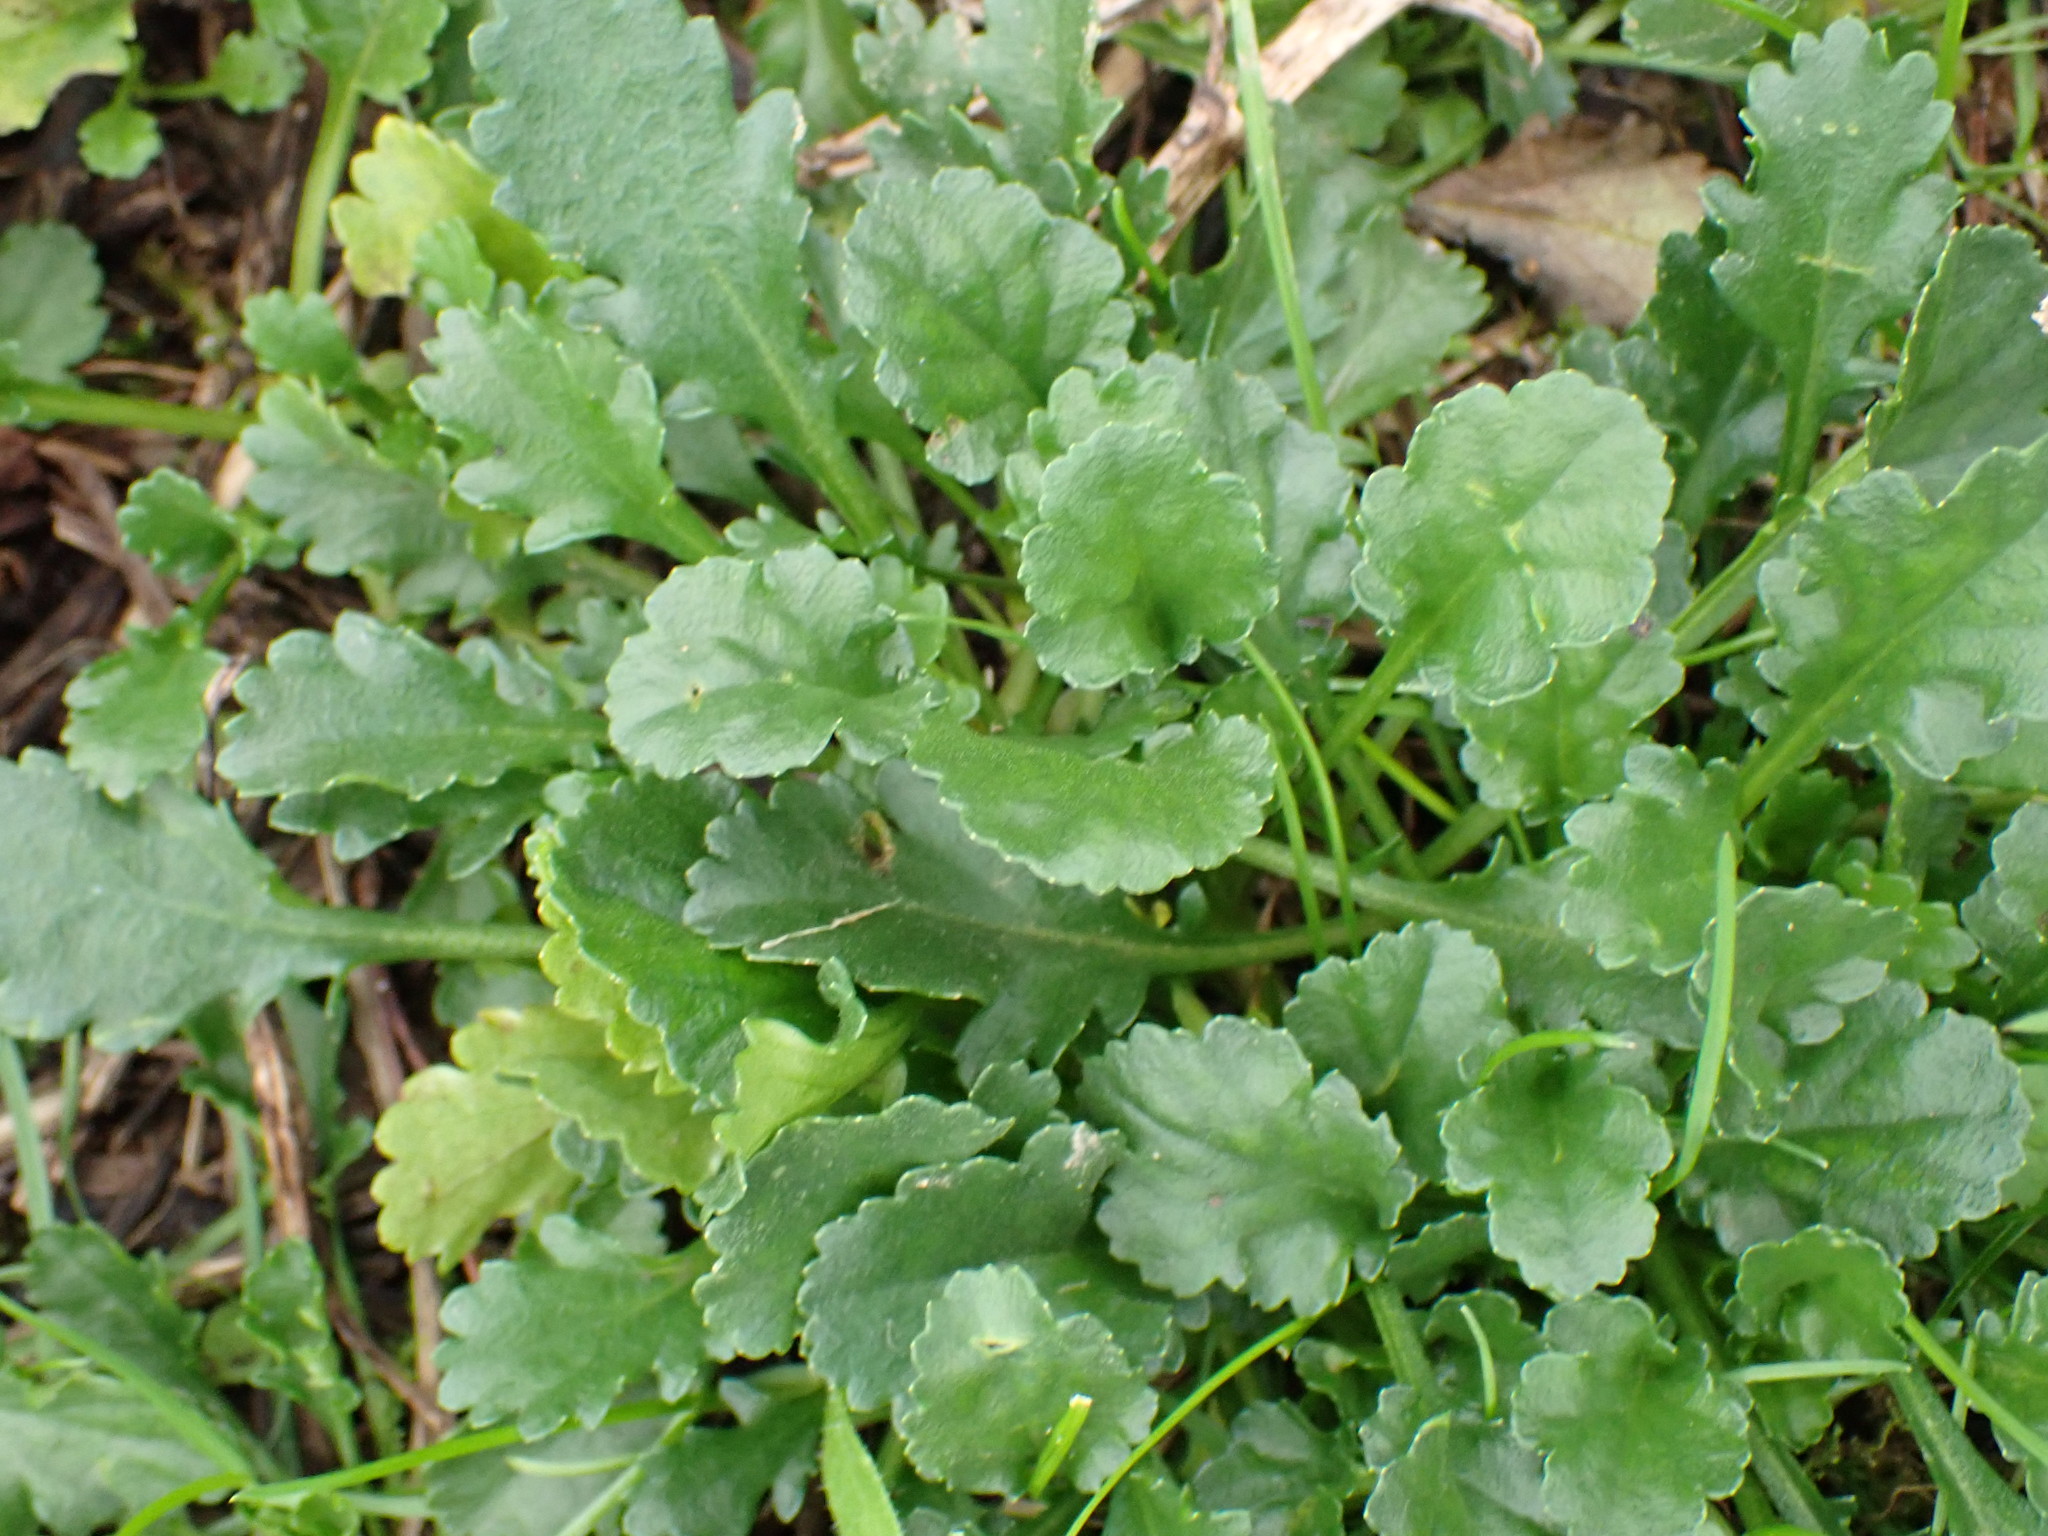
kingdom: Plantae
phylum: Tracheophyta
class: Magnoliopsida
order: Asterales
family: Asteraceae
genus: Leucanthemum
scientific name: Leucanthemum vulgare
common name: Oxeye daisy
